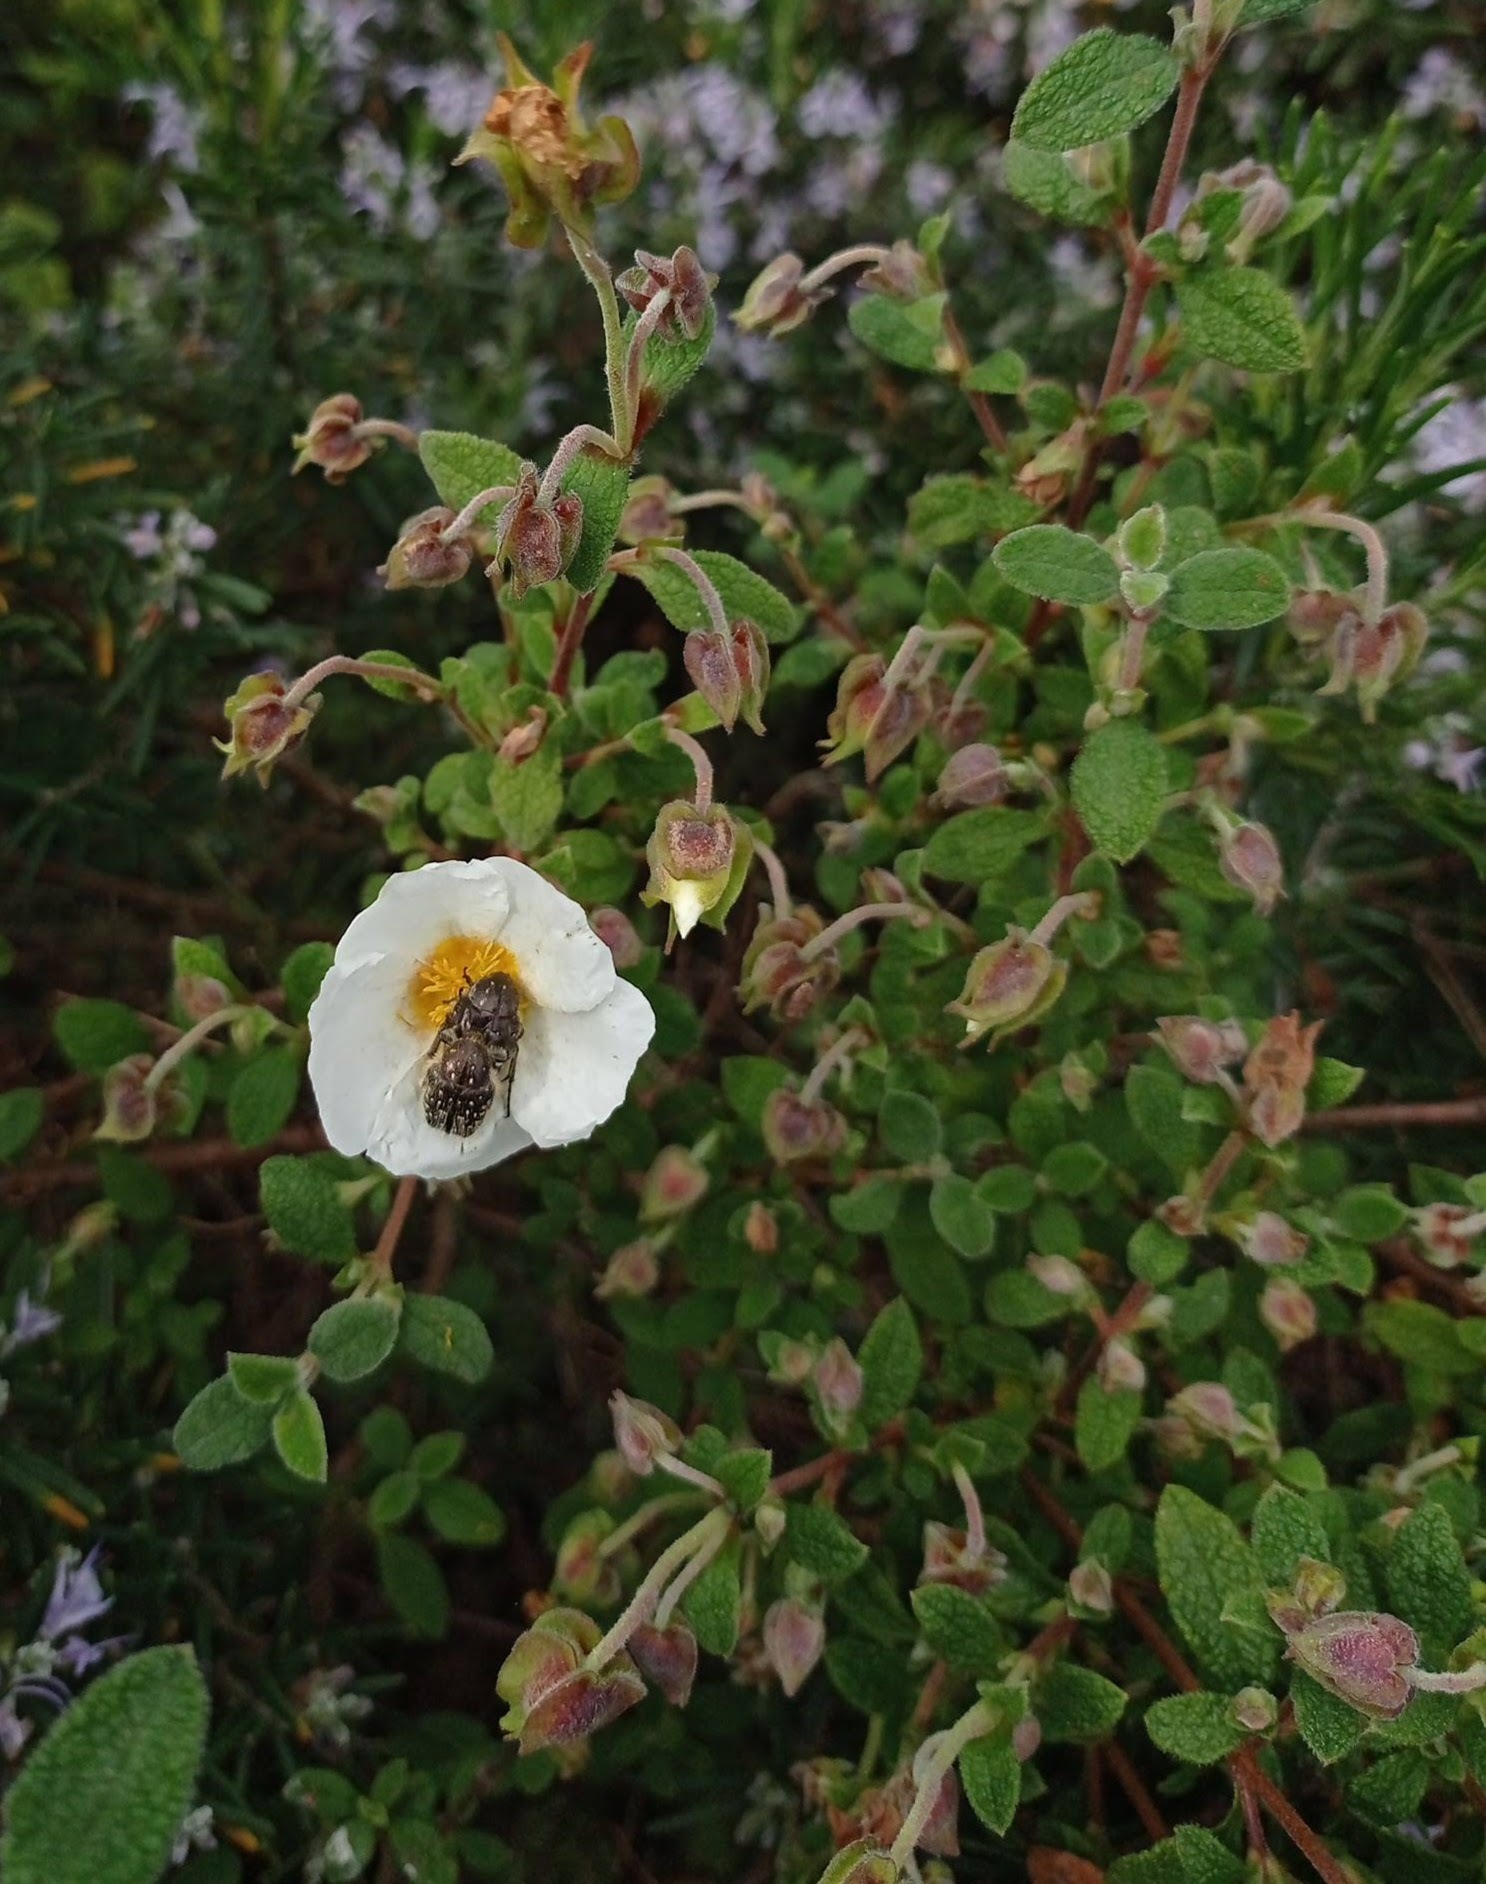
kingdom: Animalia
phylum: Arthropoda
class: Insecta
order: Coleoptera
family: Scarabaeidae
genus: Oxythyrea
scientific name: Oxythyrea funesta
